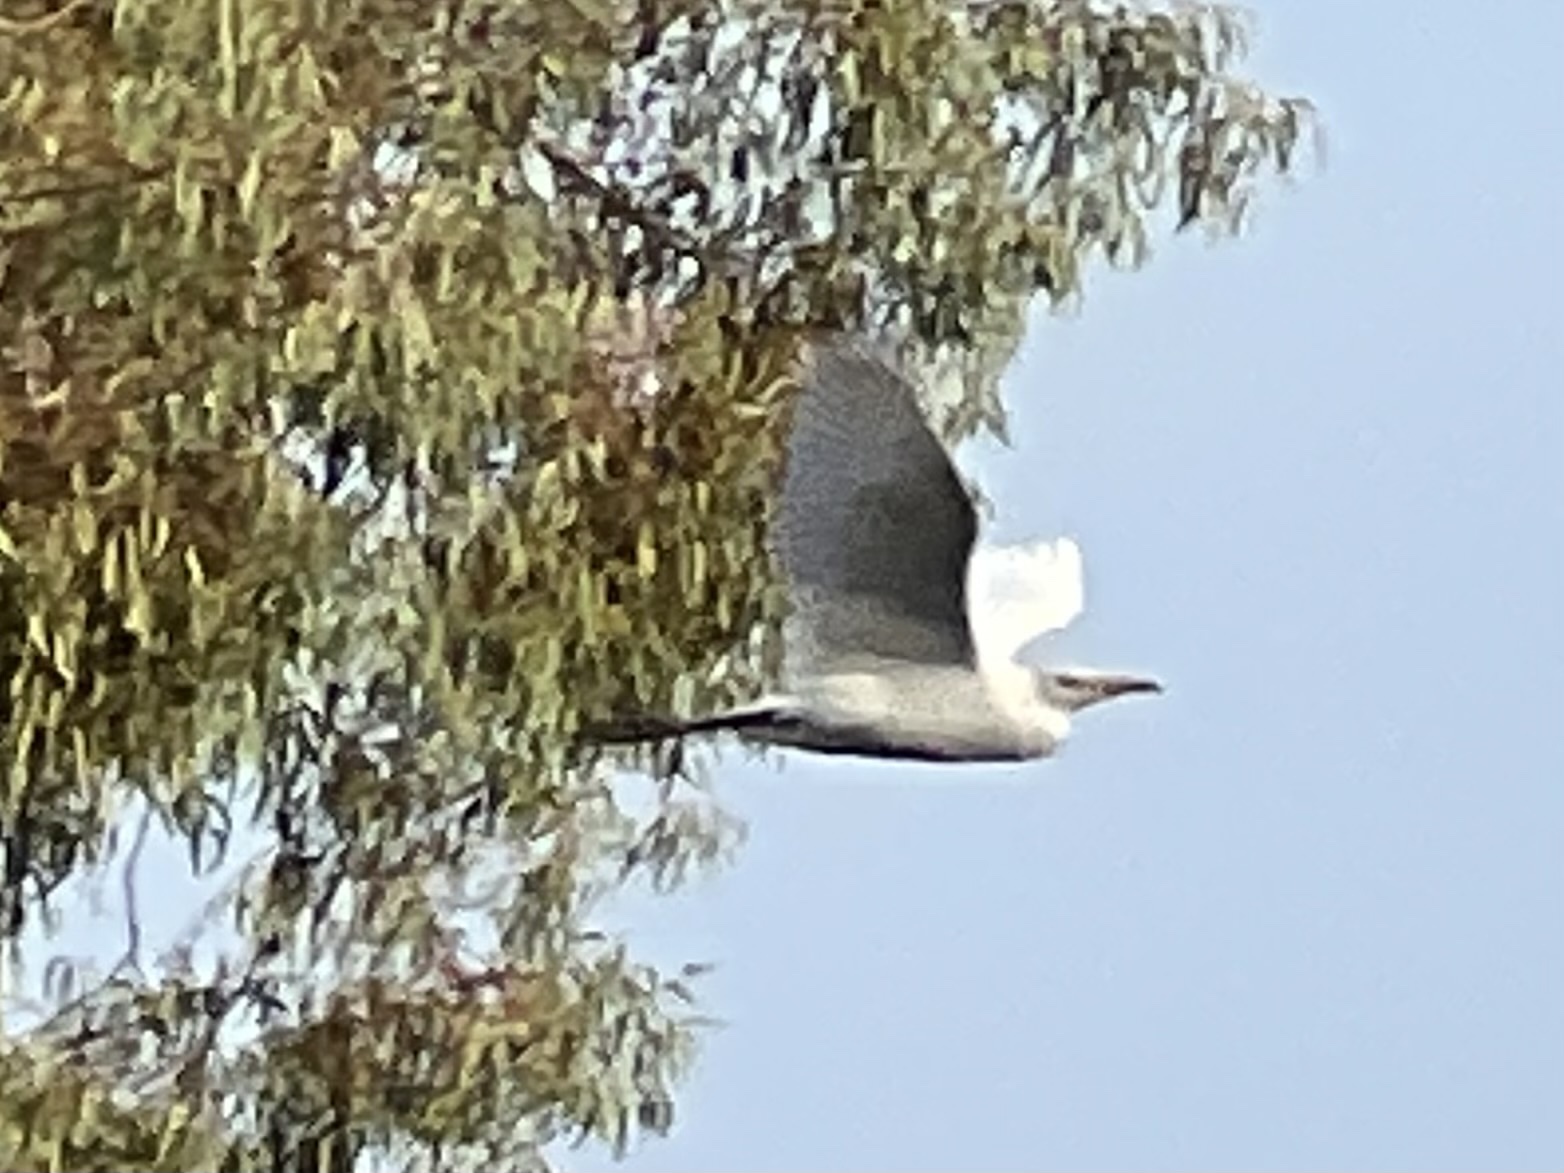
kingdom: Animalia
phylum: Chordata
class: Aves
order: Pelecaniformes
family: Ardeidae
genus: Bubulcus
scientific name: Bubulcus ibis
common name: Cattle egret
